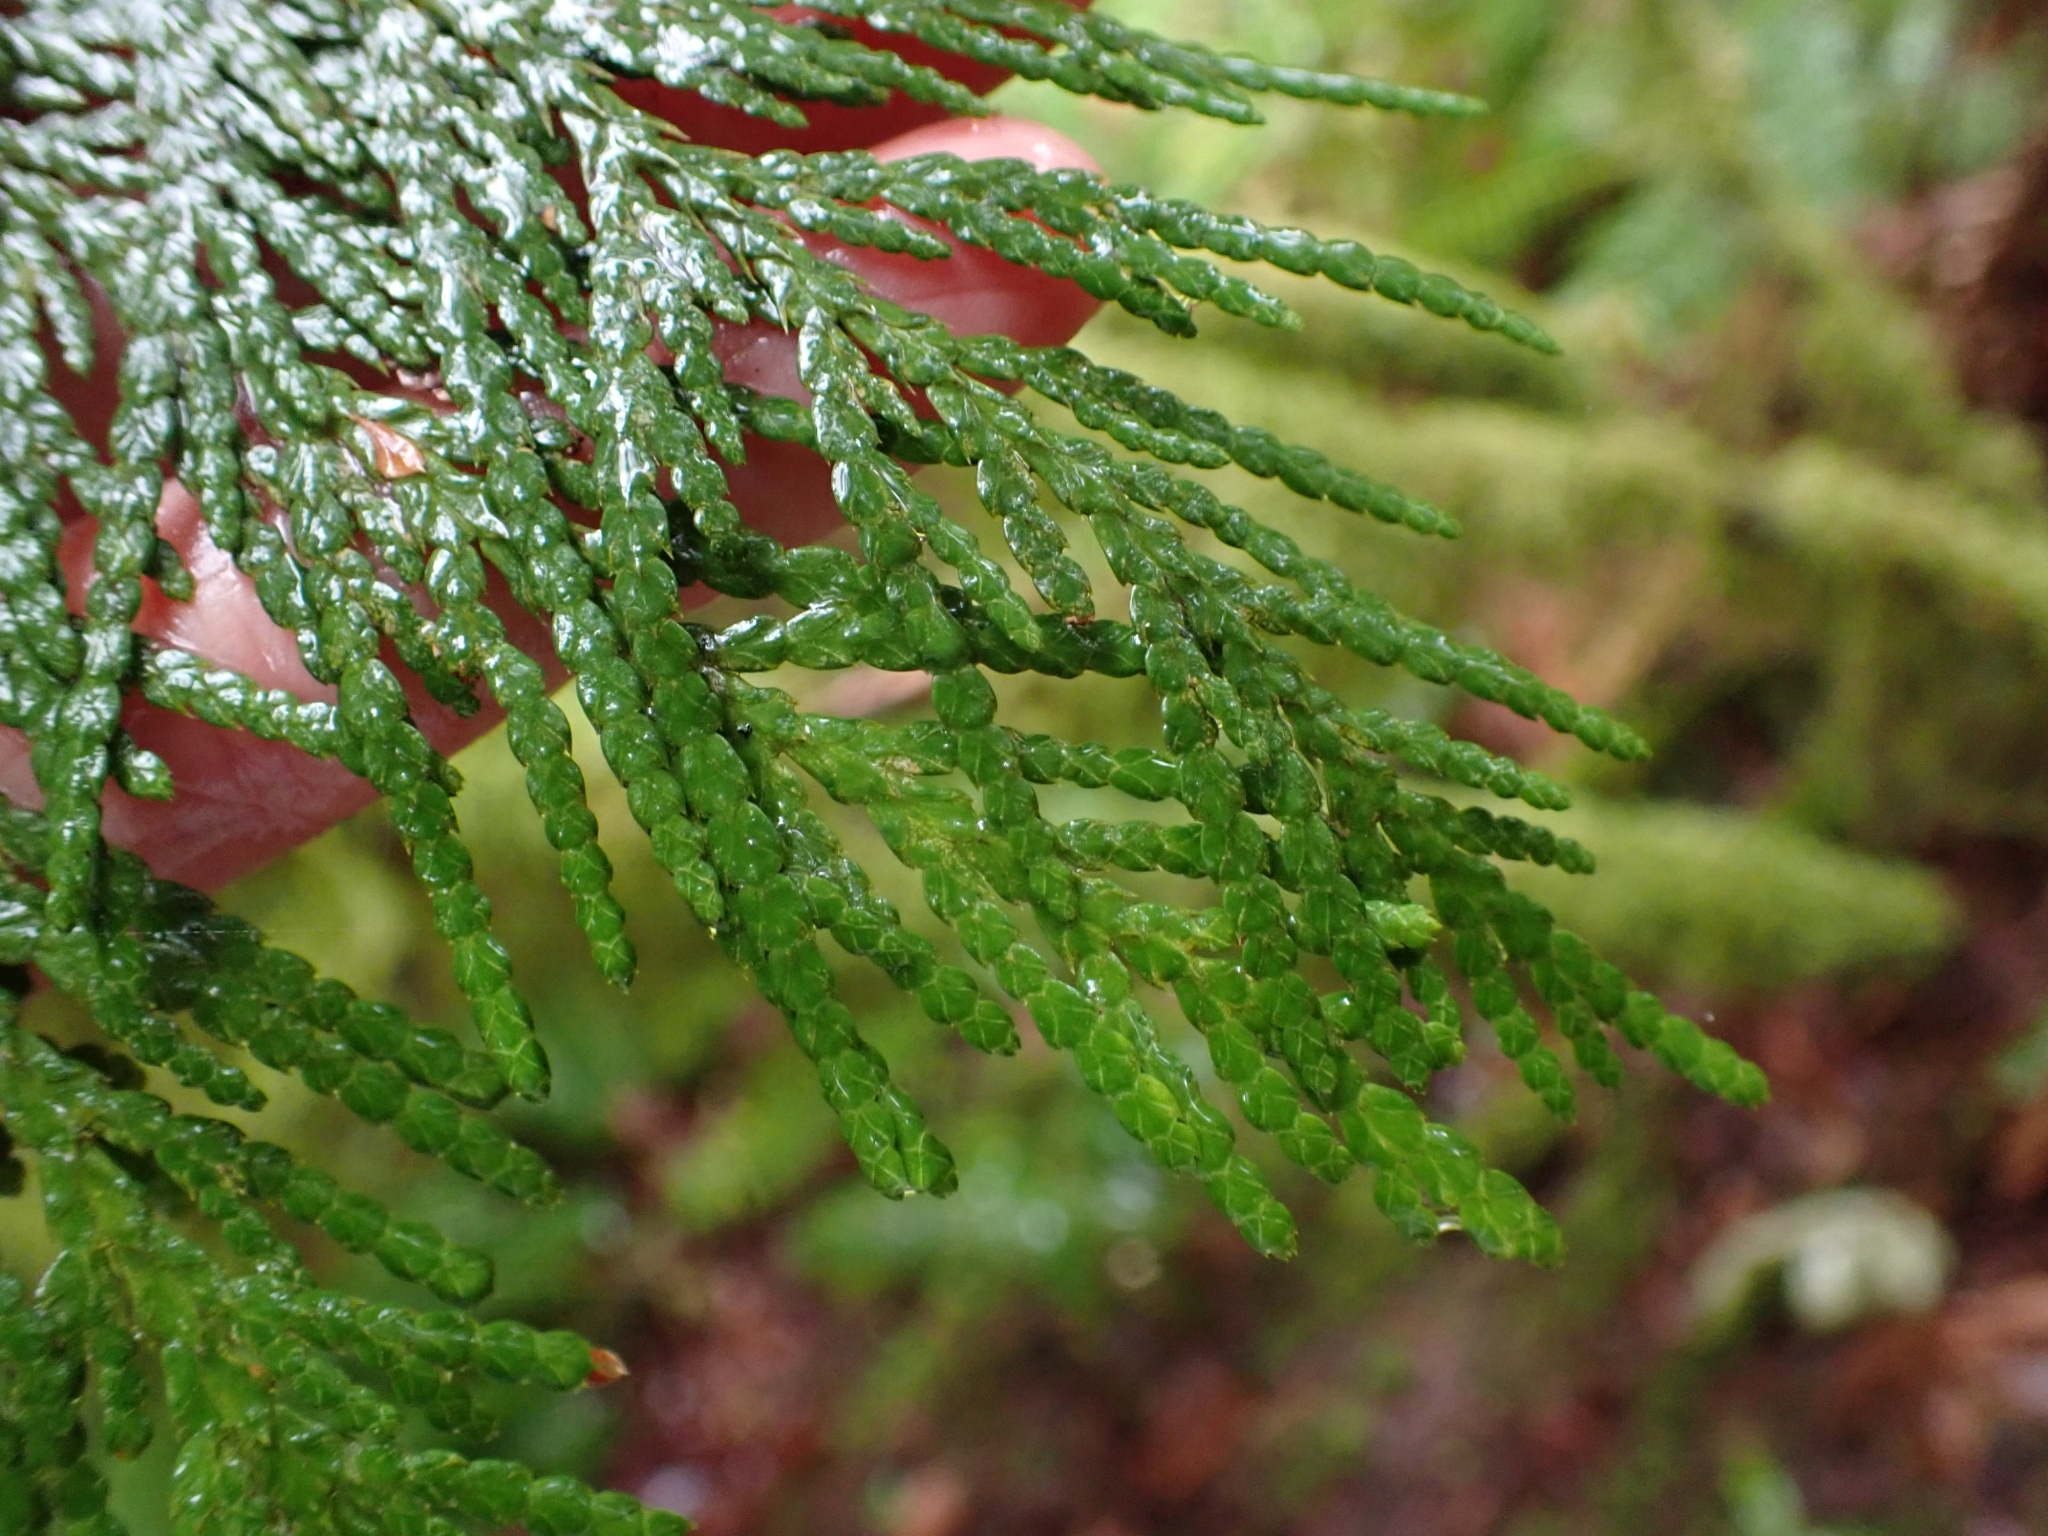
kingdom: Plantae
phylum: Tracheophyta
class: Pinopsida
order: Pinales
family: Cupressaceae
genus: Thuja
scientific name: Thuja plicata
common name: Western red-cedar
